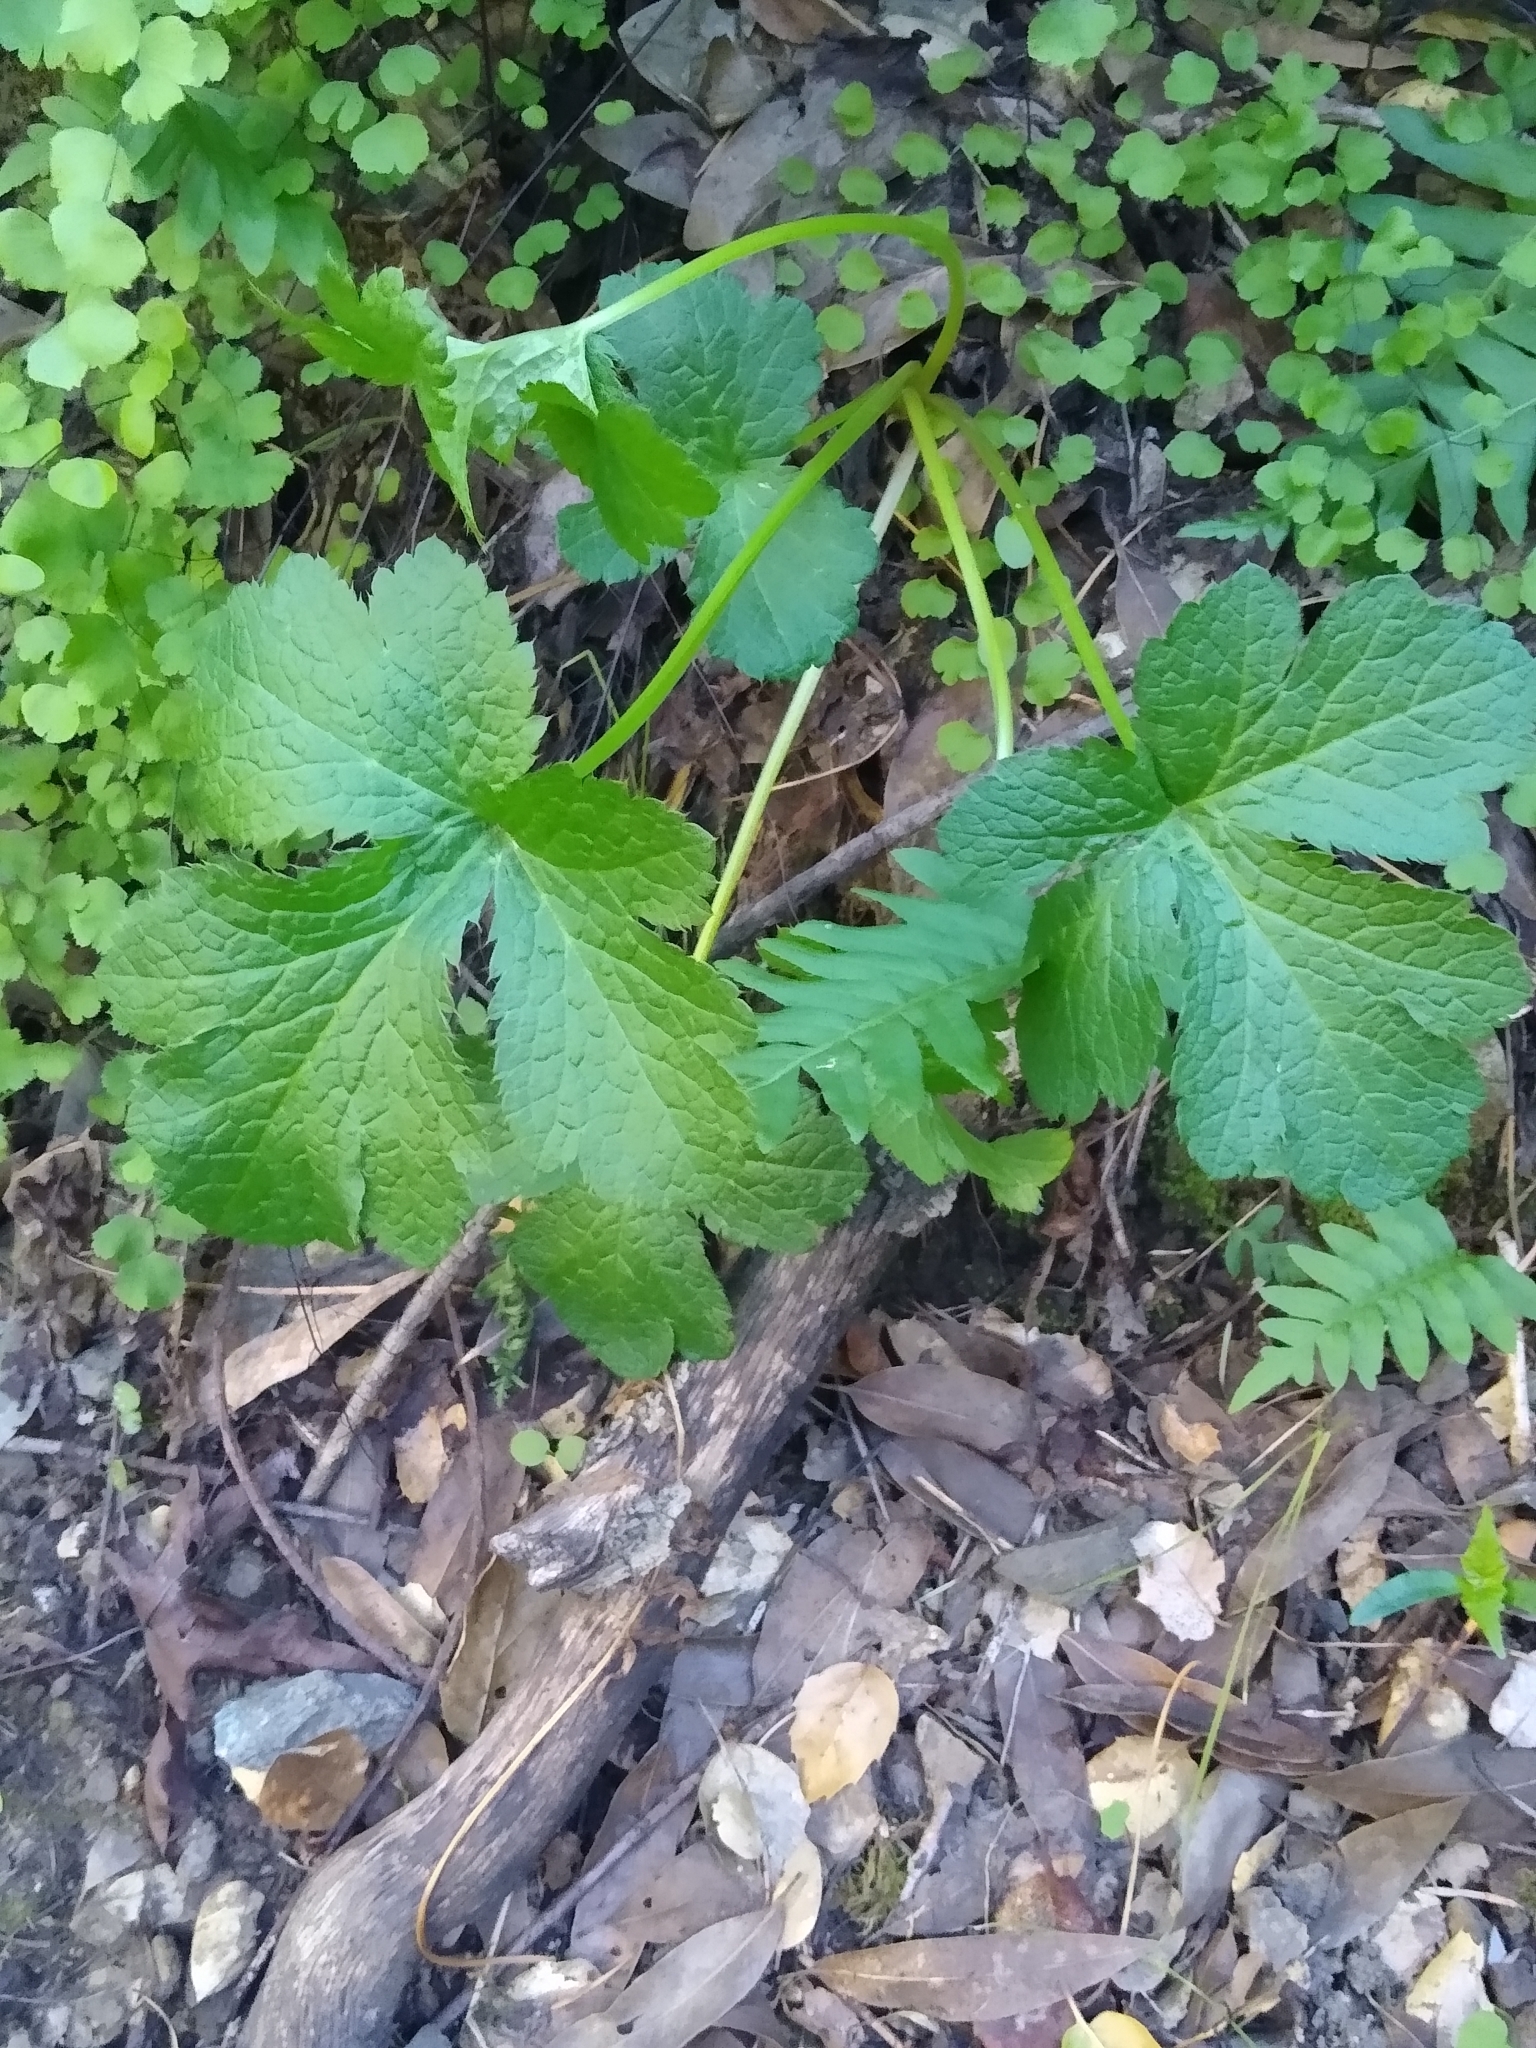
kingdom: Plantae
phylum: Tracheophyta
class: Magnoliopsida
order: Apiales
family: Apiaceae
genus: Sanicula
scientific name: Sanicula crassicaulis
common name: Western snakeroot
